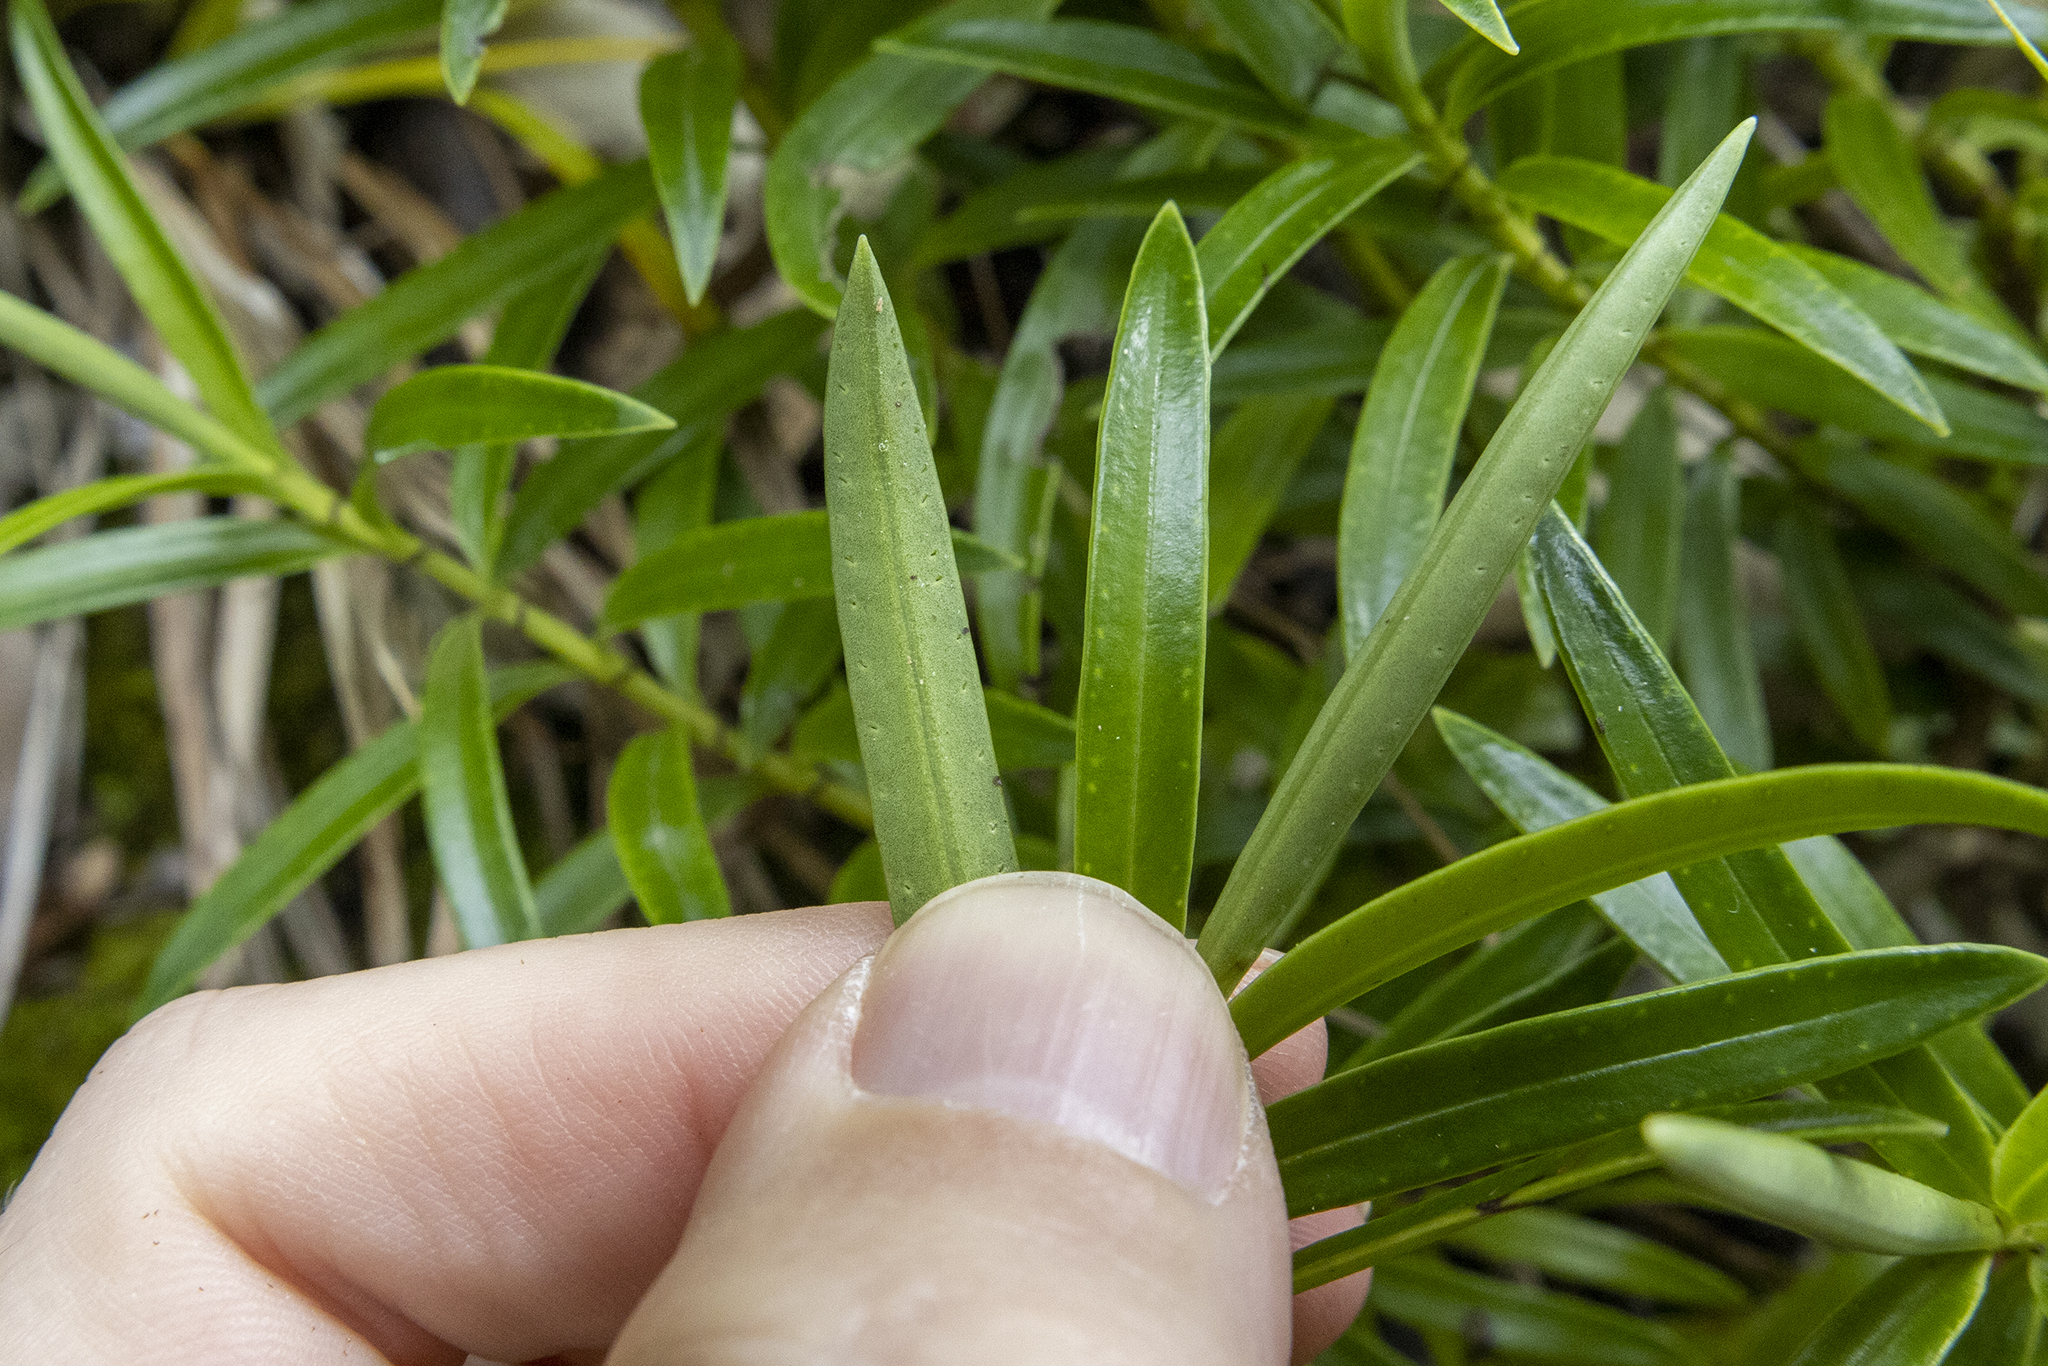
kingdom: Plantae
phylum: Tracheophyta
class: Magnoliopsida
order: Lamiales
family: Plantaginaceae
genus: Veronica
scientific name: Veronica townsonii
